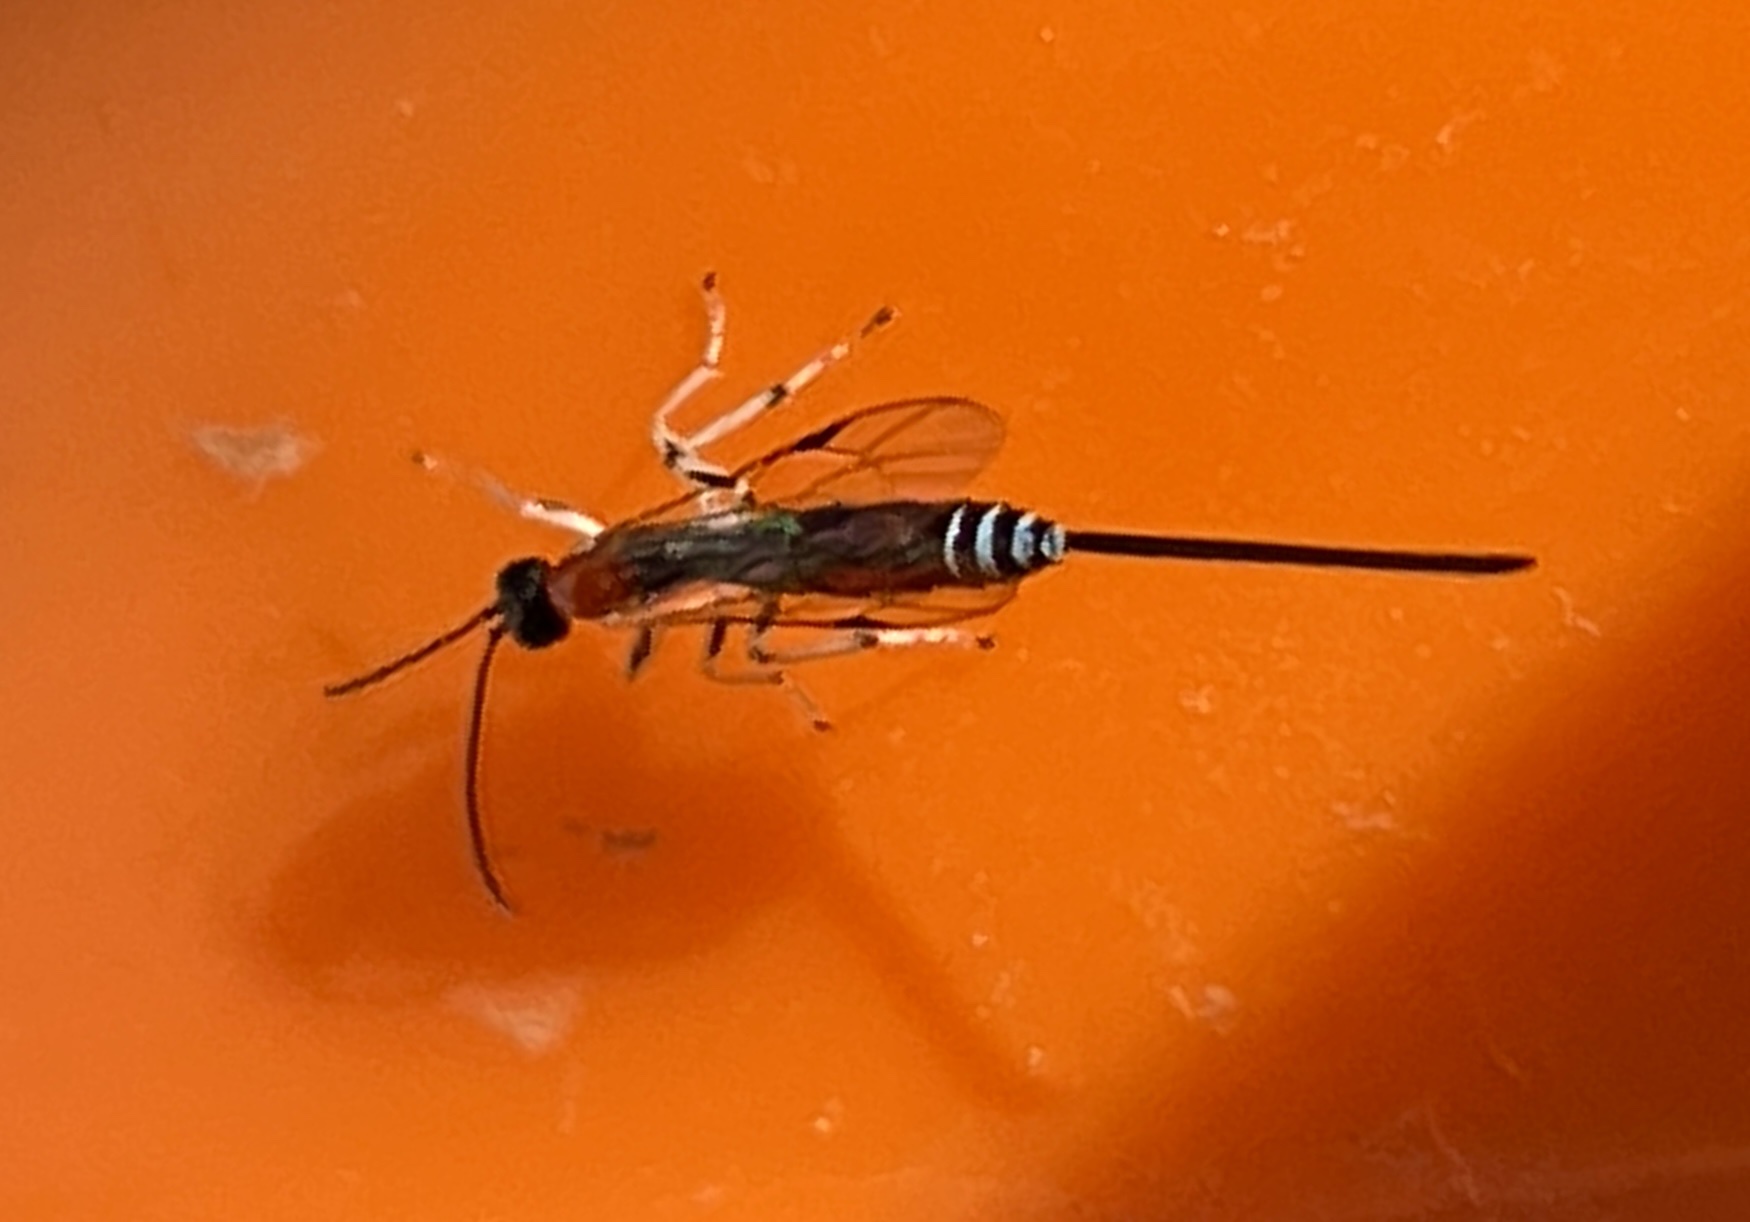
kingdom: Animalia
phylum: Arthropoda
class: Insecta
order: Hymenoptera
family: Ichneumonidae
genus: Calliephialtes
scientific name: Calliephialtes grapholithae
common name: Parasitoid wasp
